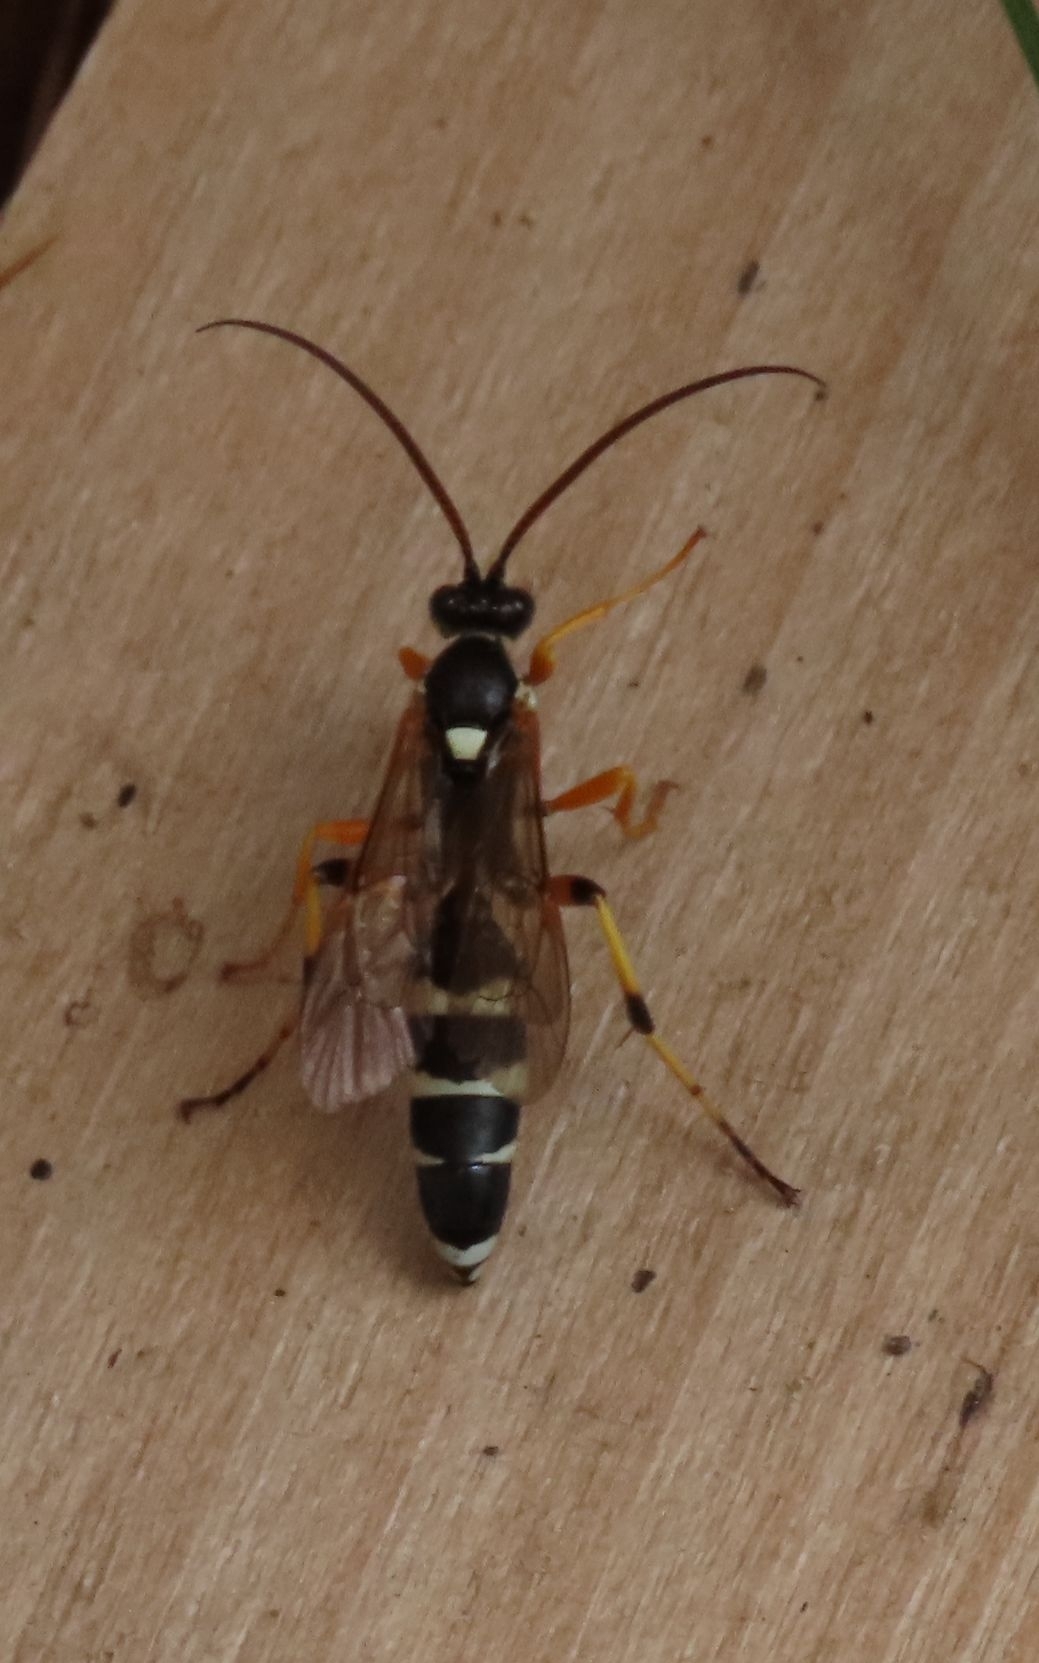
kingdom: Animalia
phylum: Arthropoda
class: Insecta
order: Hymenoptera
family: Ichneumonidae
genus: Ichneumon
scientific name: Ichneumon sarcitorius
